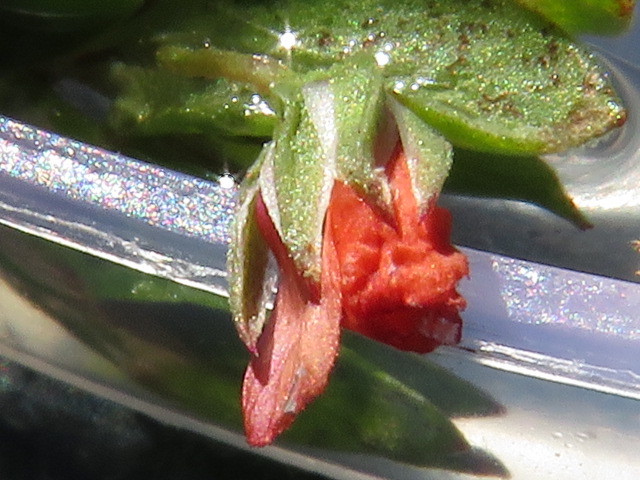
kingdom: Plantae
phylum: Tracheophyta
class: Magnoliopsida
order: Ericales
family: Primulaceae
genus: Lysimachia
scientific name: Lysimachia arvensis
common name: Scarlet pimpernel
